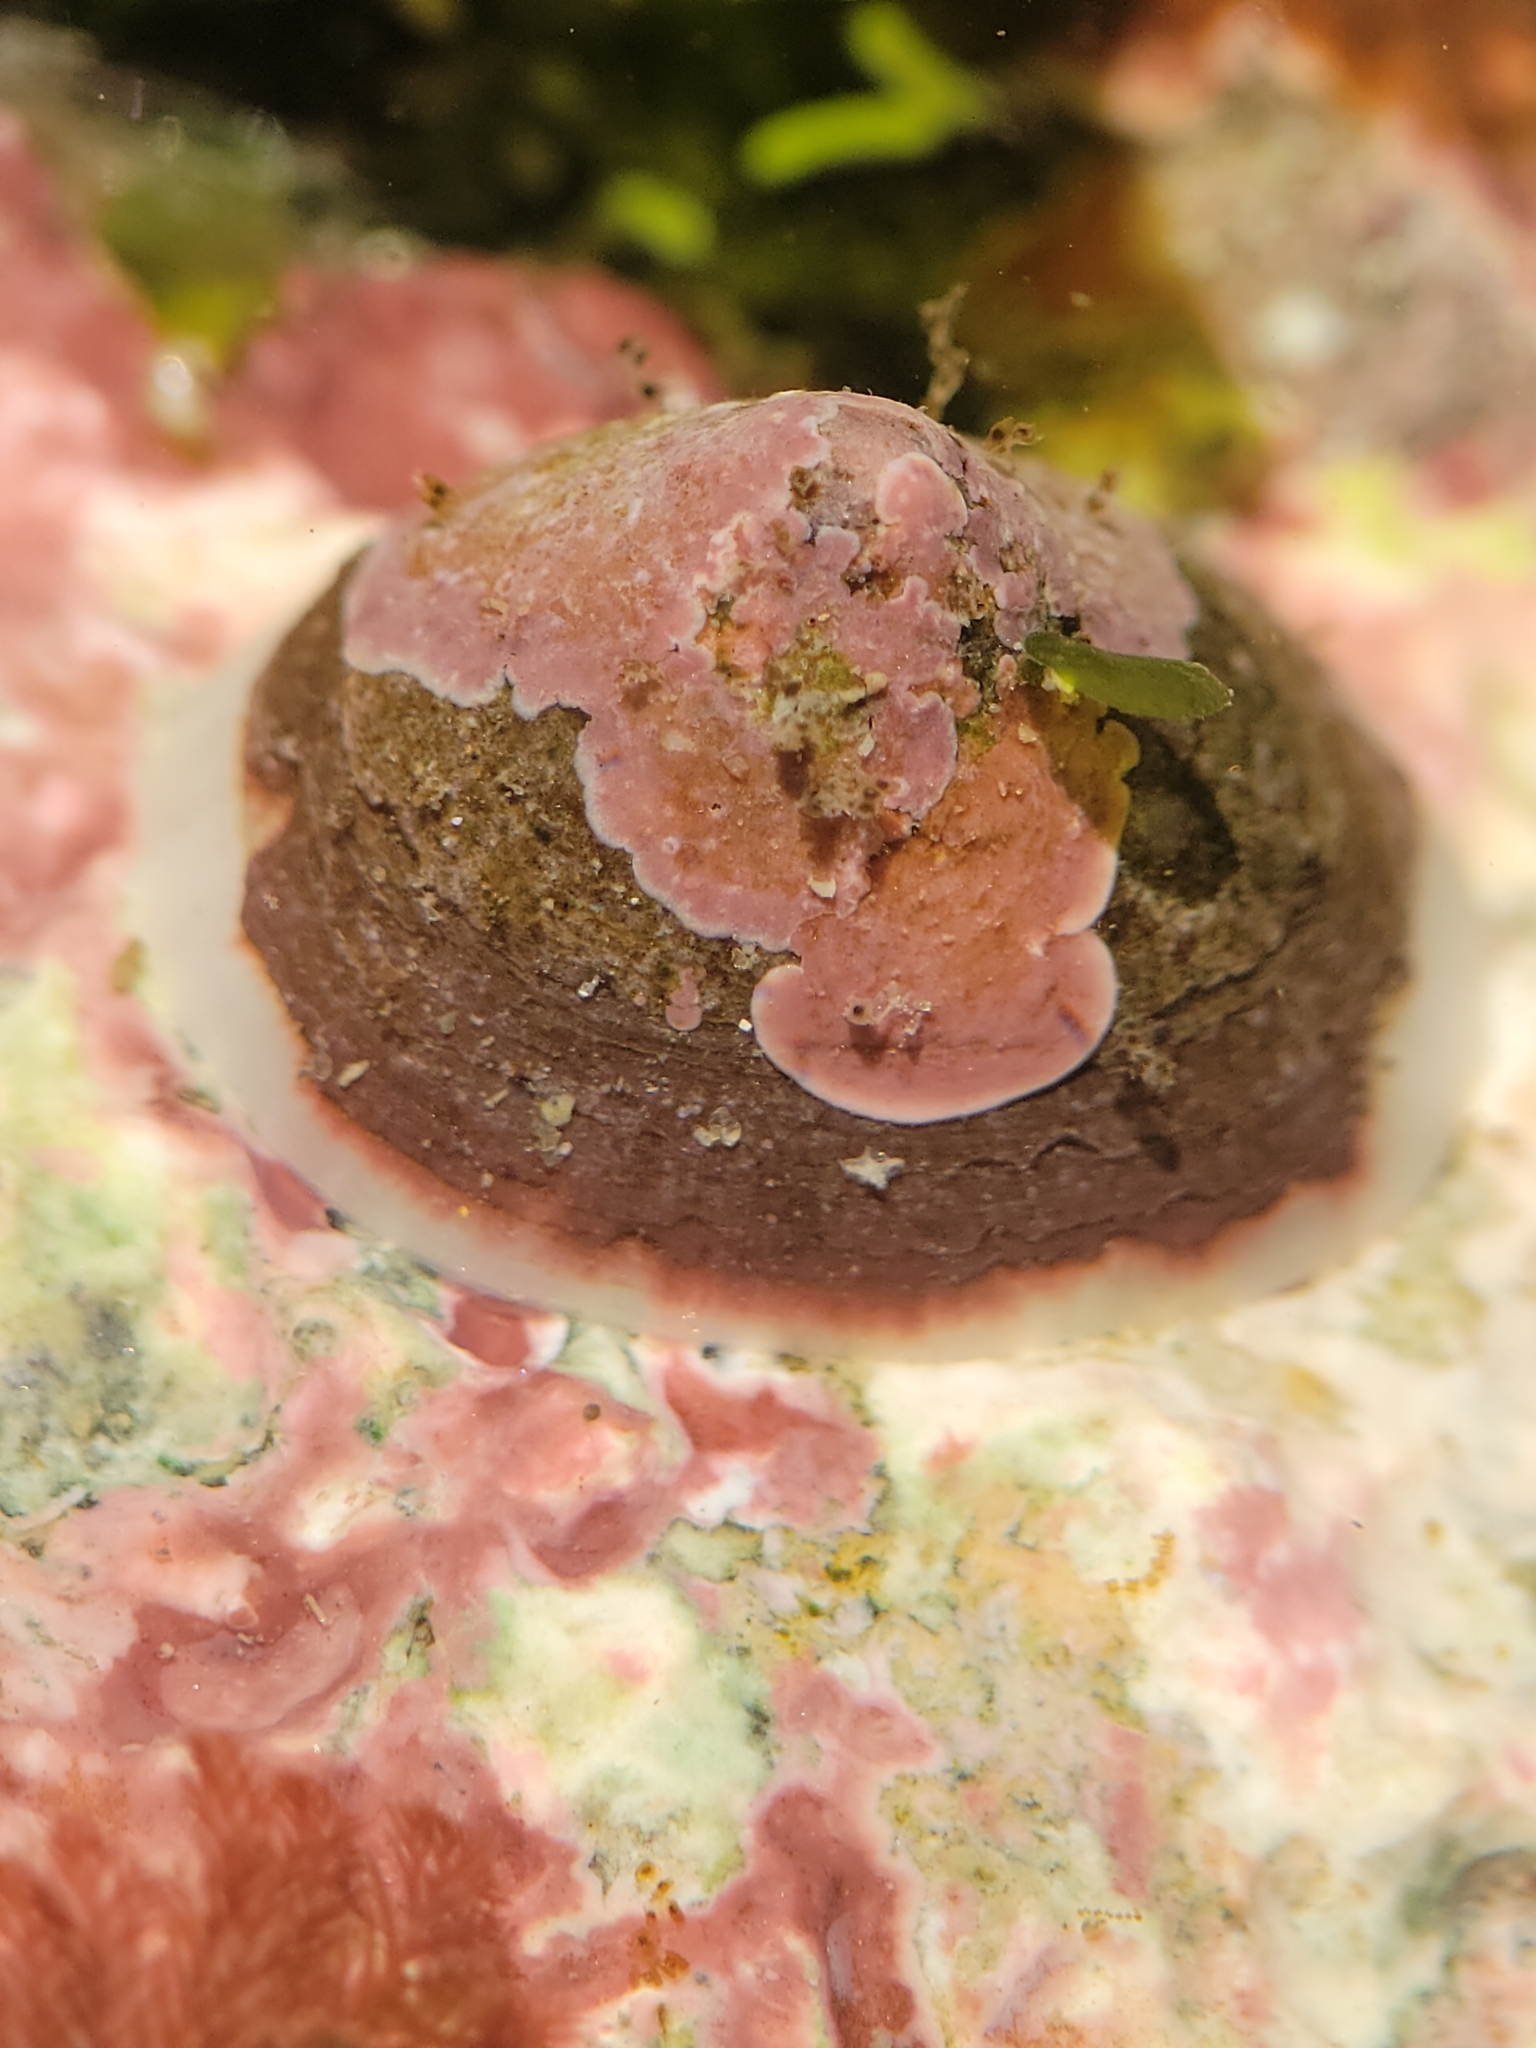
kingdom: Animalia
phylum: Mollusca
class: Gastropoda
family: Acmaeidae
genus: Acmaea
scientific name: Acmaea mitra
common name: Pacific white cap limpet
